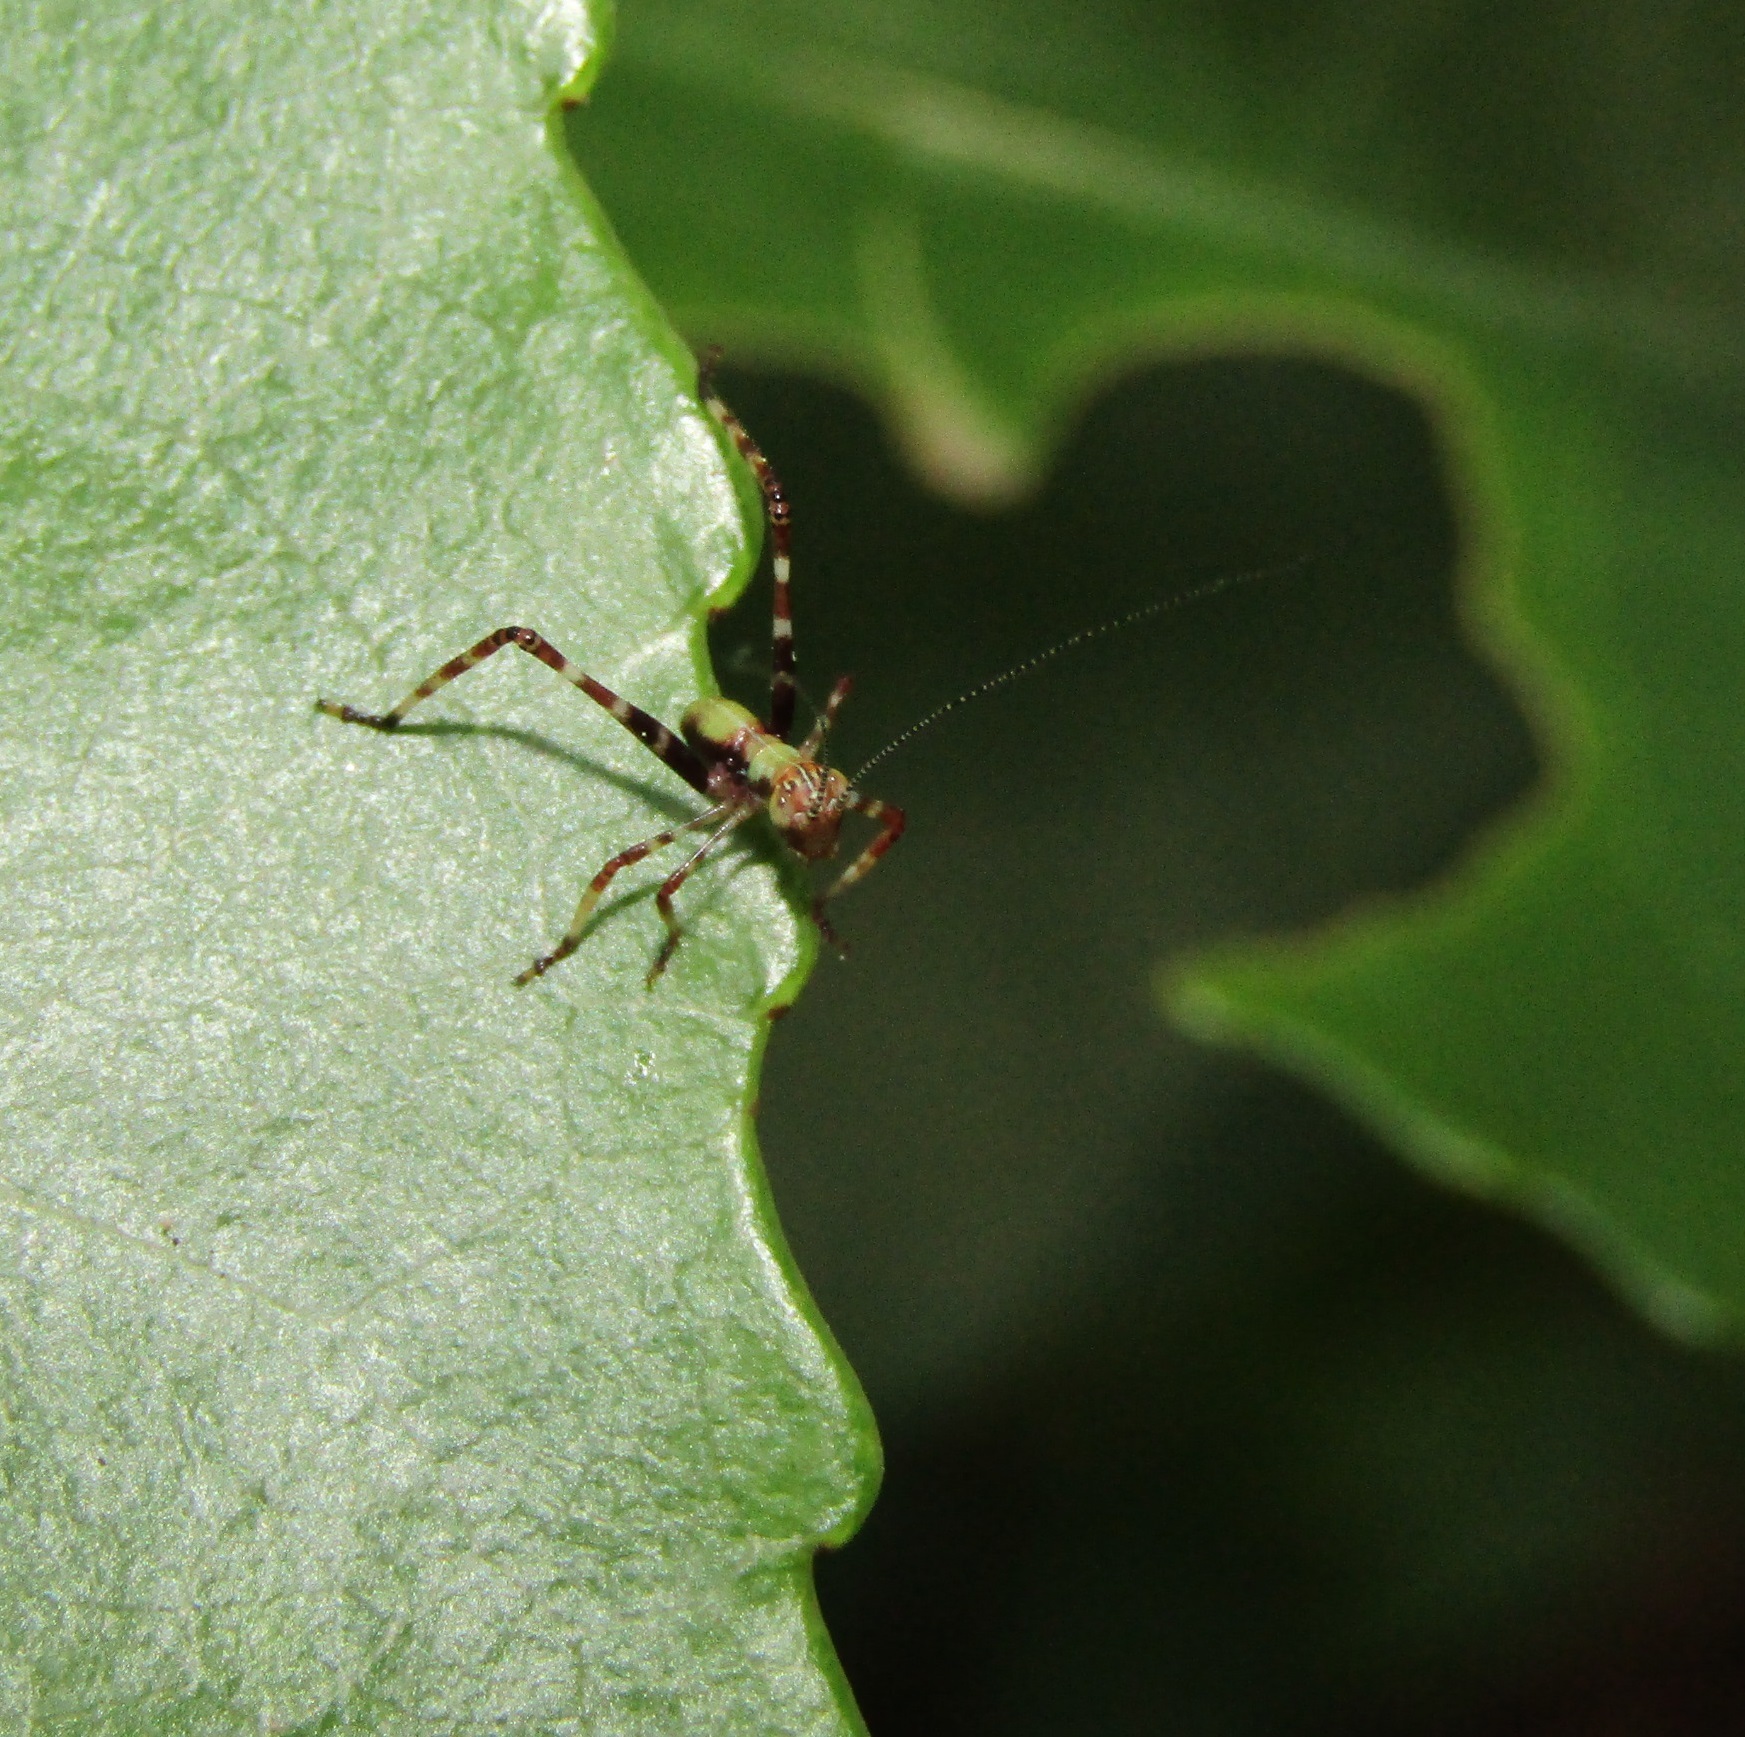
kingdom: Animalia
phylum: Arthropoda
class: Insecta
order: Orthoptera
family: Tettigoniidae
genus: Caedicia
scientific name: Caedicia simplex
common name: Common garden katydid
